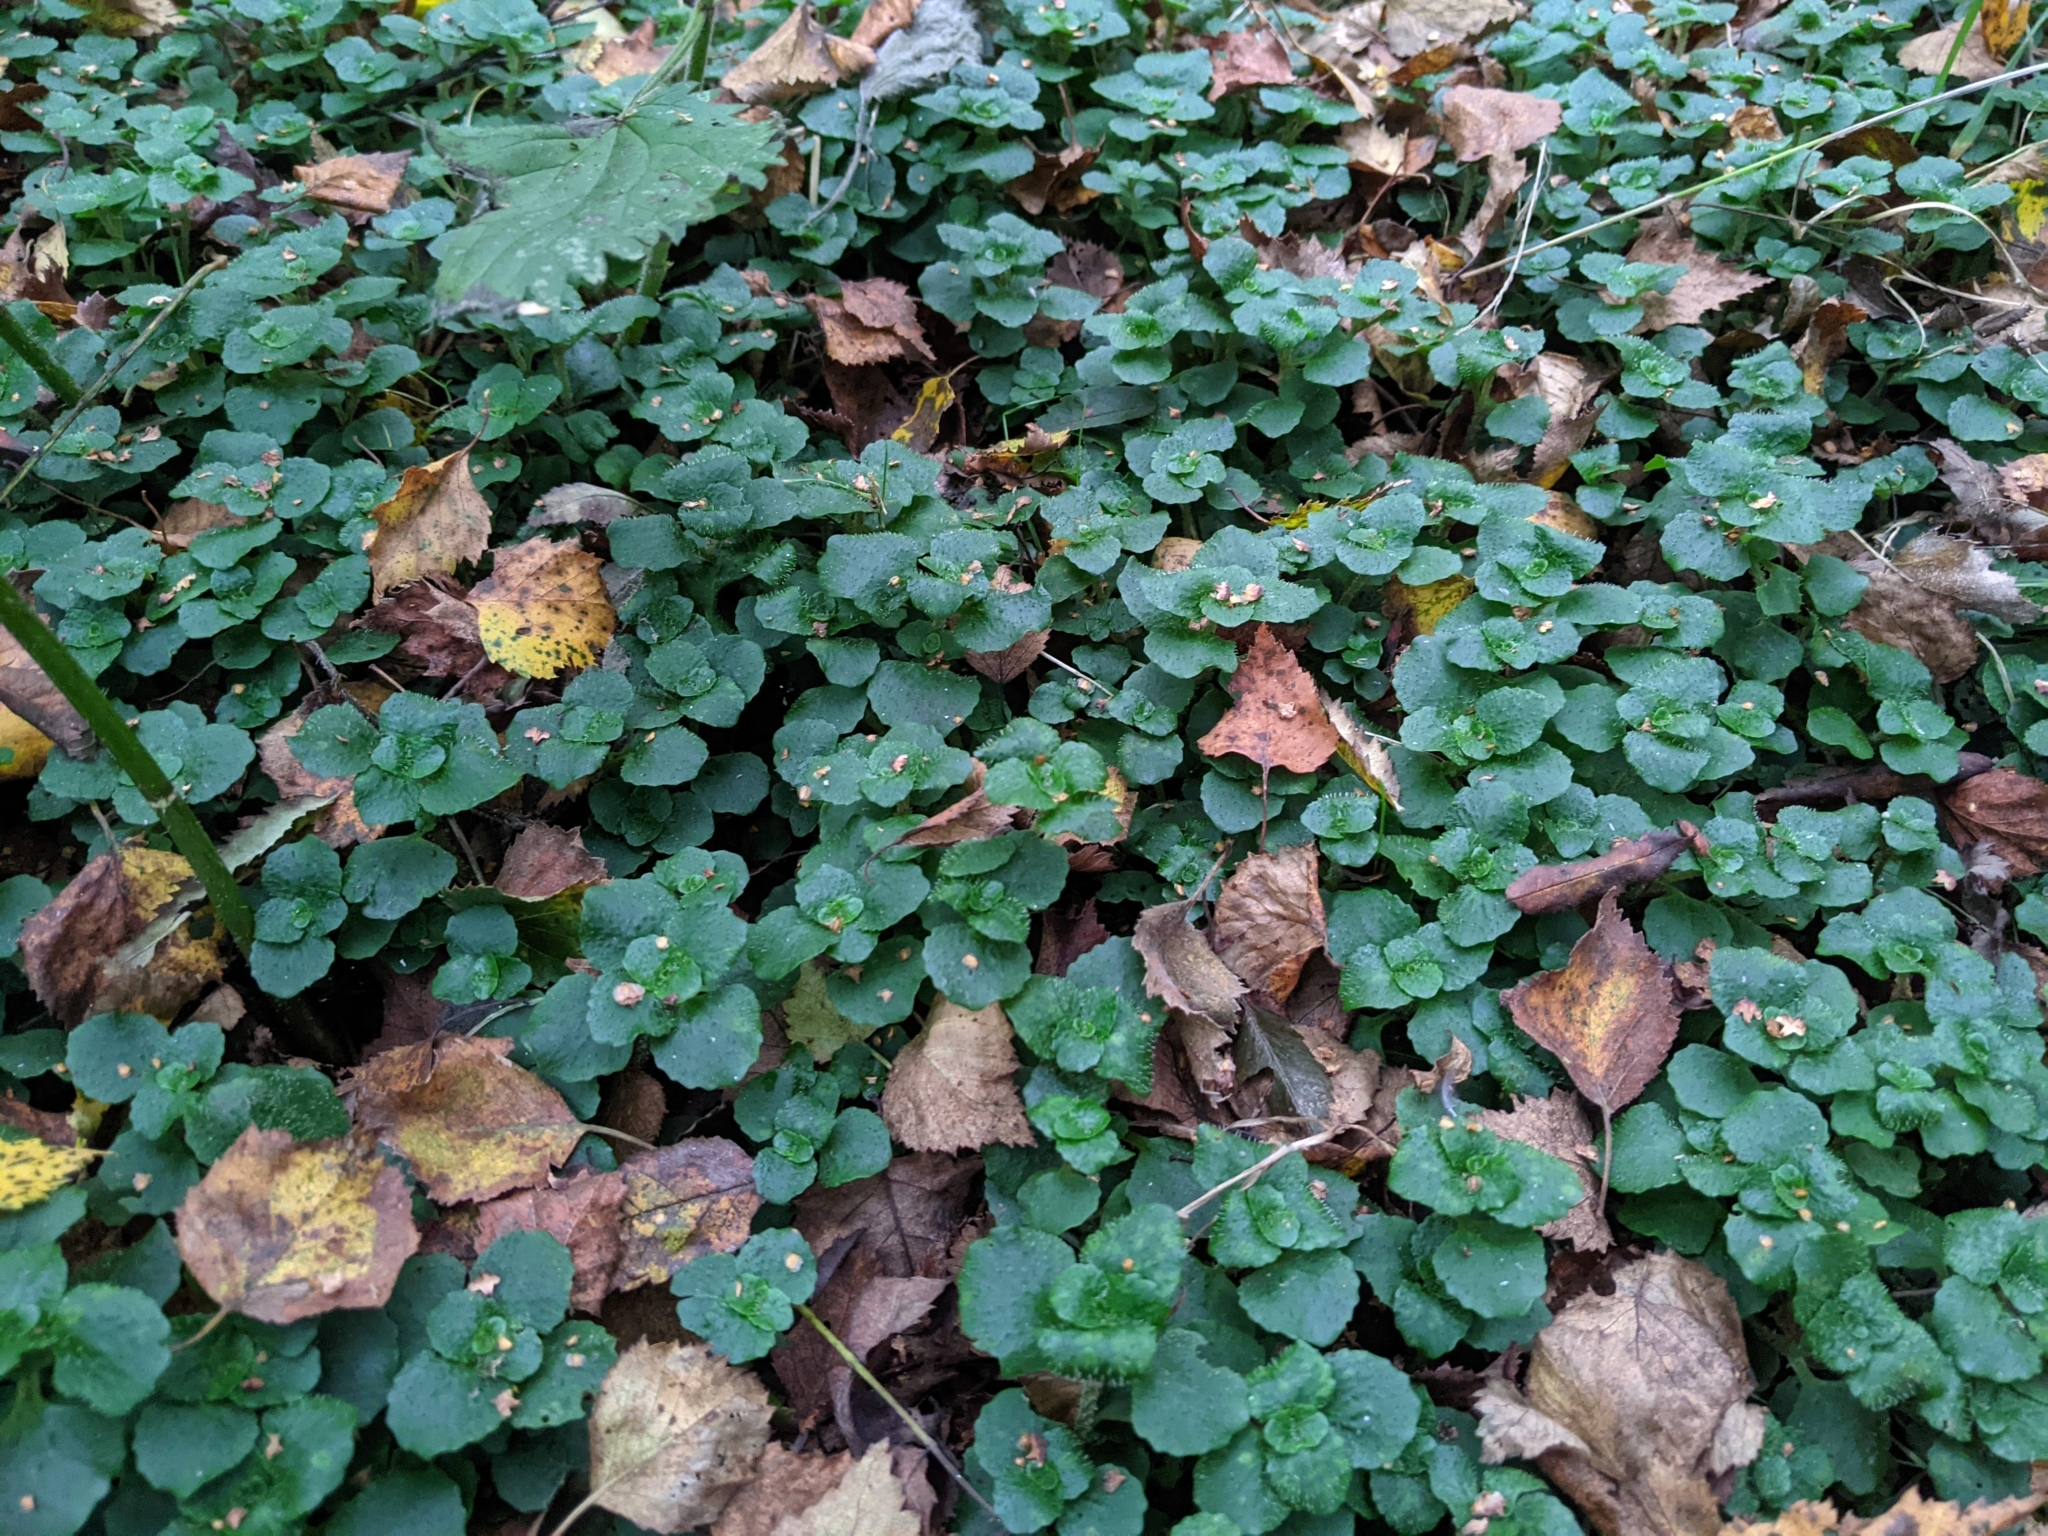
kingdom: Plantae
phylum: Tracheophyta
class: Magnoliopsida
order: Saxifragales
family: Saxifragaceae
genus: Chrysosplenium
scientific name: Chrysosplenium oppositifolium
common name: Opposite-leaved golden-saxifrage
